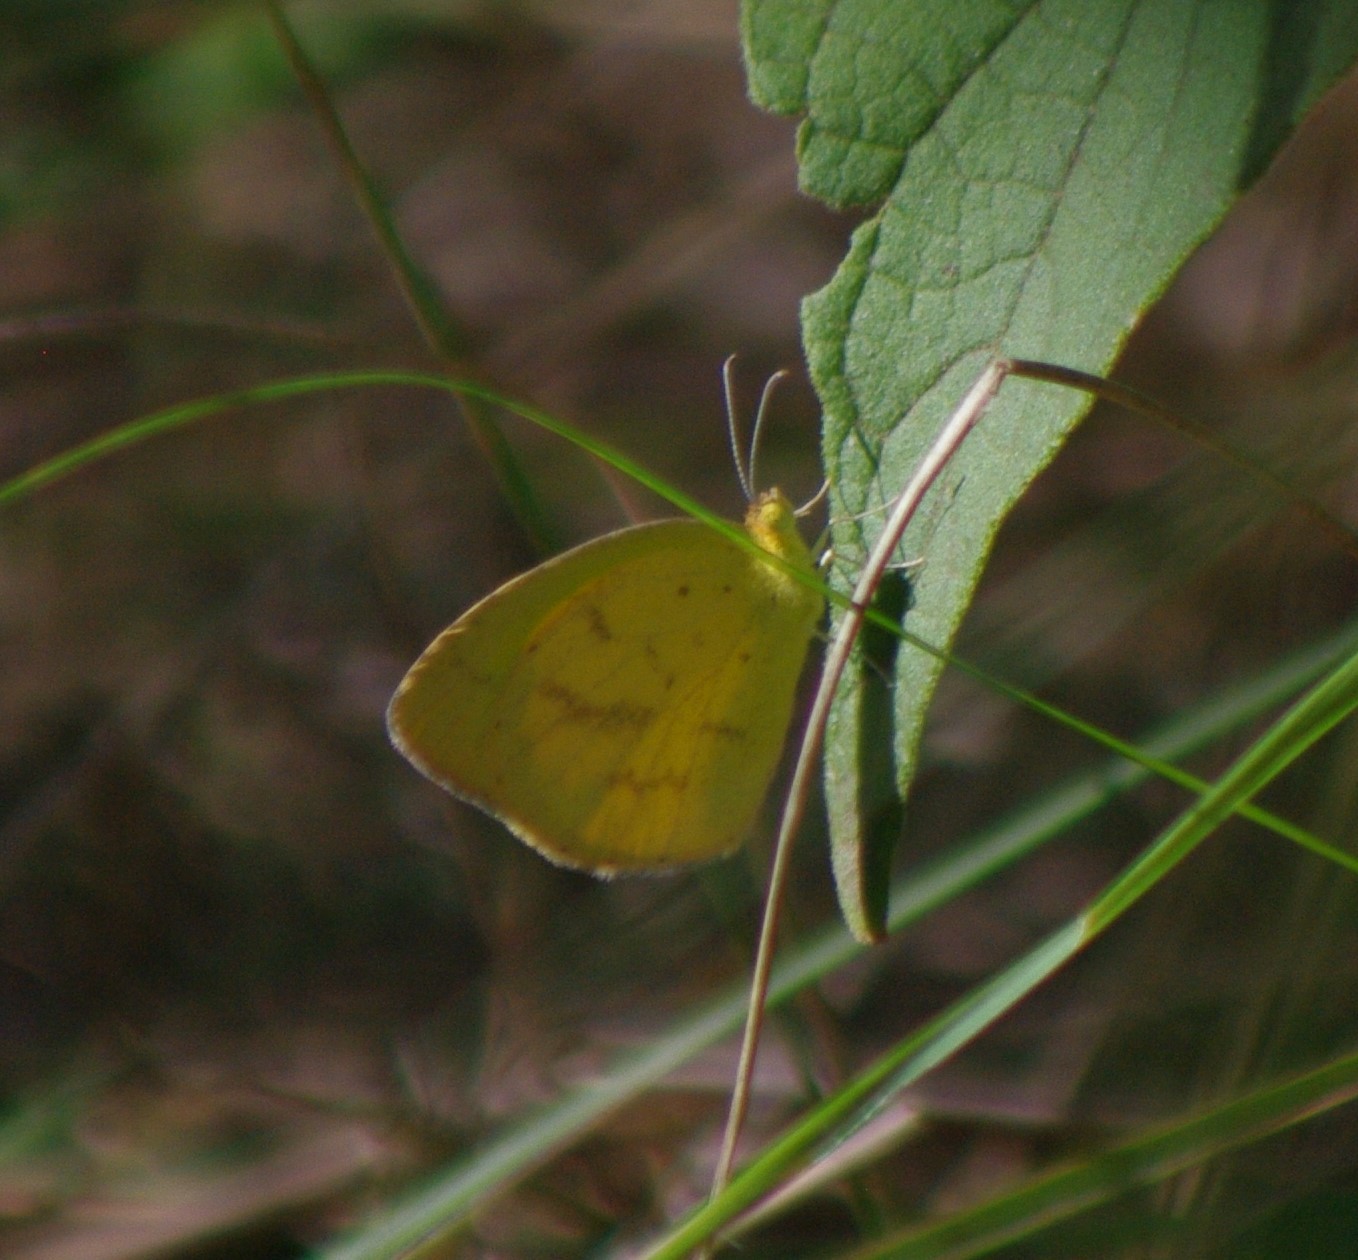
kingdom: Animalia
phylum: Arthropoda
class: Insecta
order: Lepidoptera
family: Pieridae
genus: Eurema
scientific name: Eurema brigitta
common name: Small grass yellow
